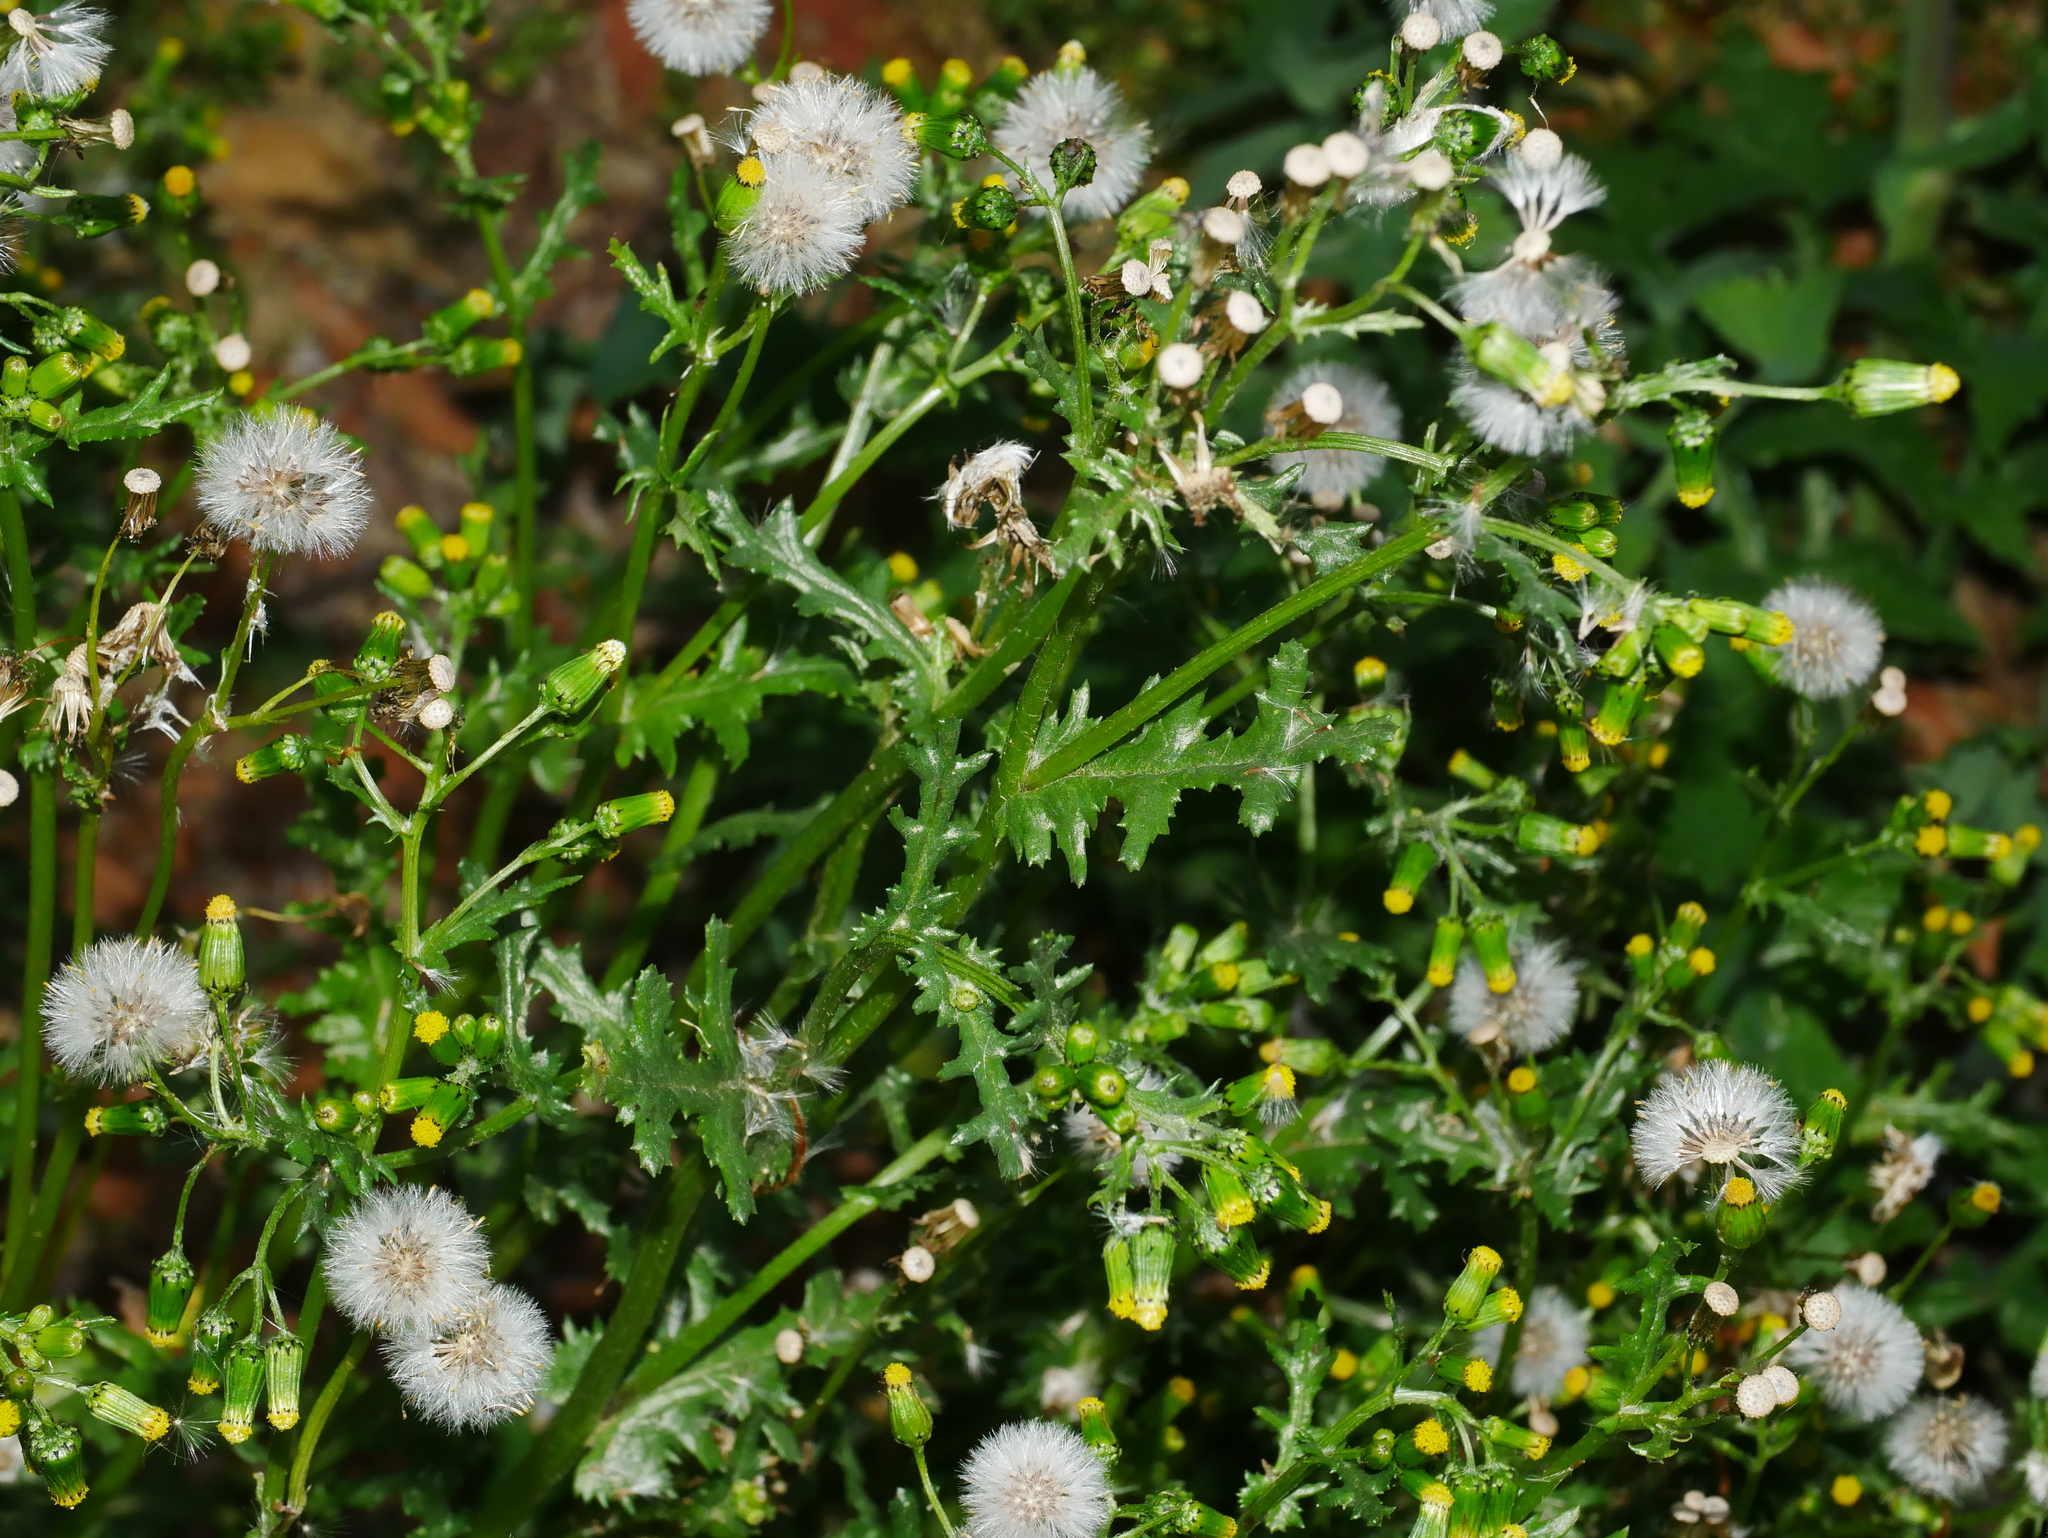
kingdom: Plantae
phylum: Tracheophyta
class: Magnoliopsida
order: Asterales
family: Asteraceae
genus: Senecio
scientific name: Senecio vulgaris
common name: Old-man-in-the-spring
